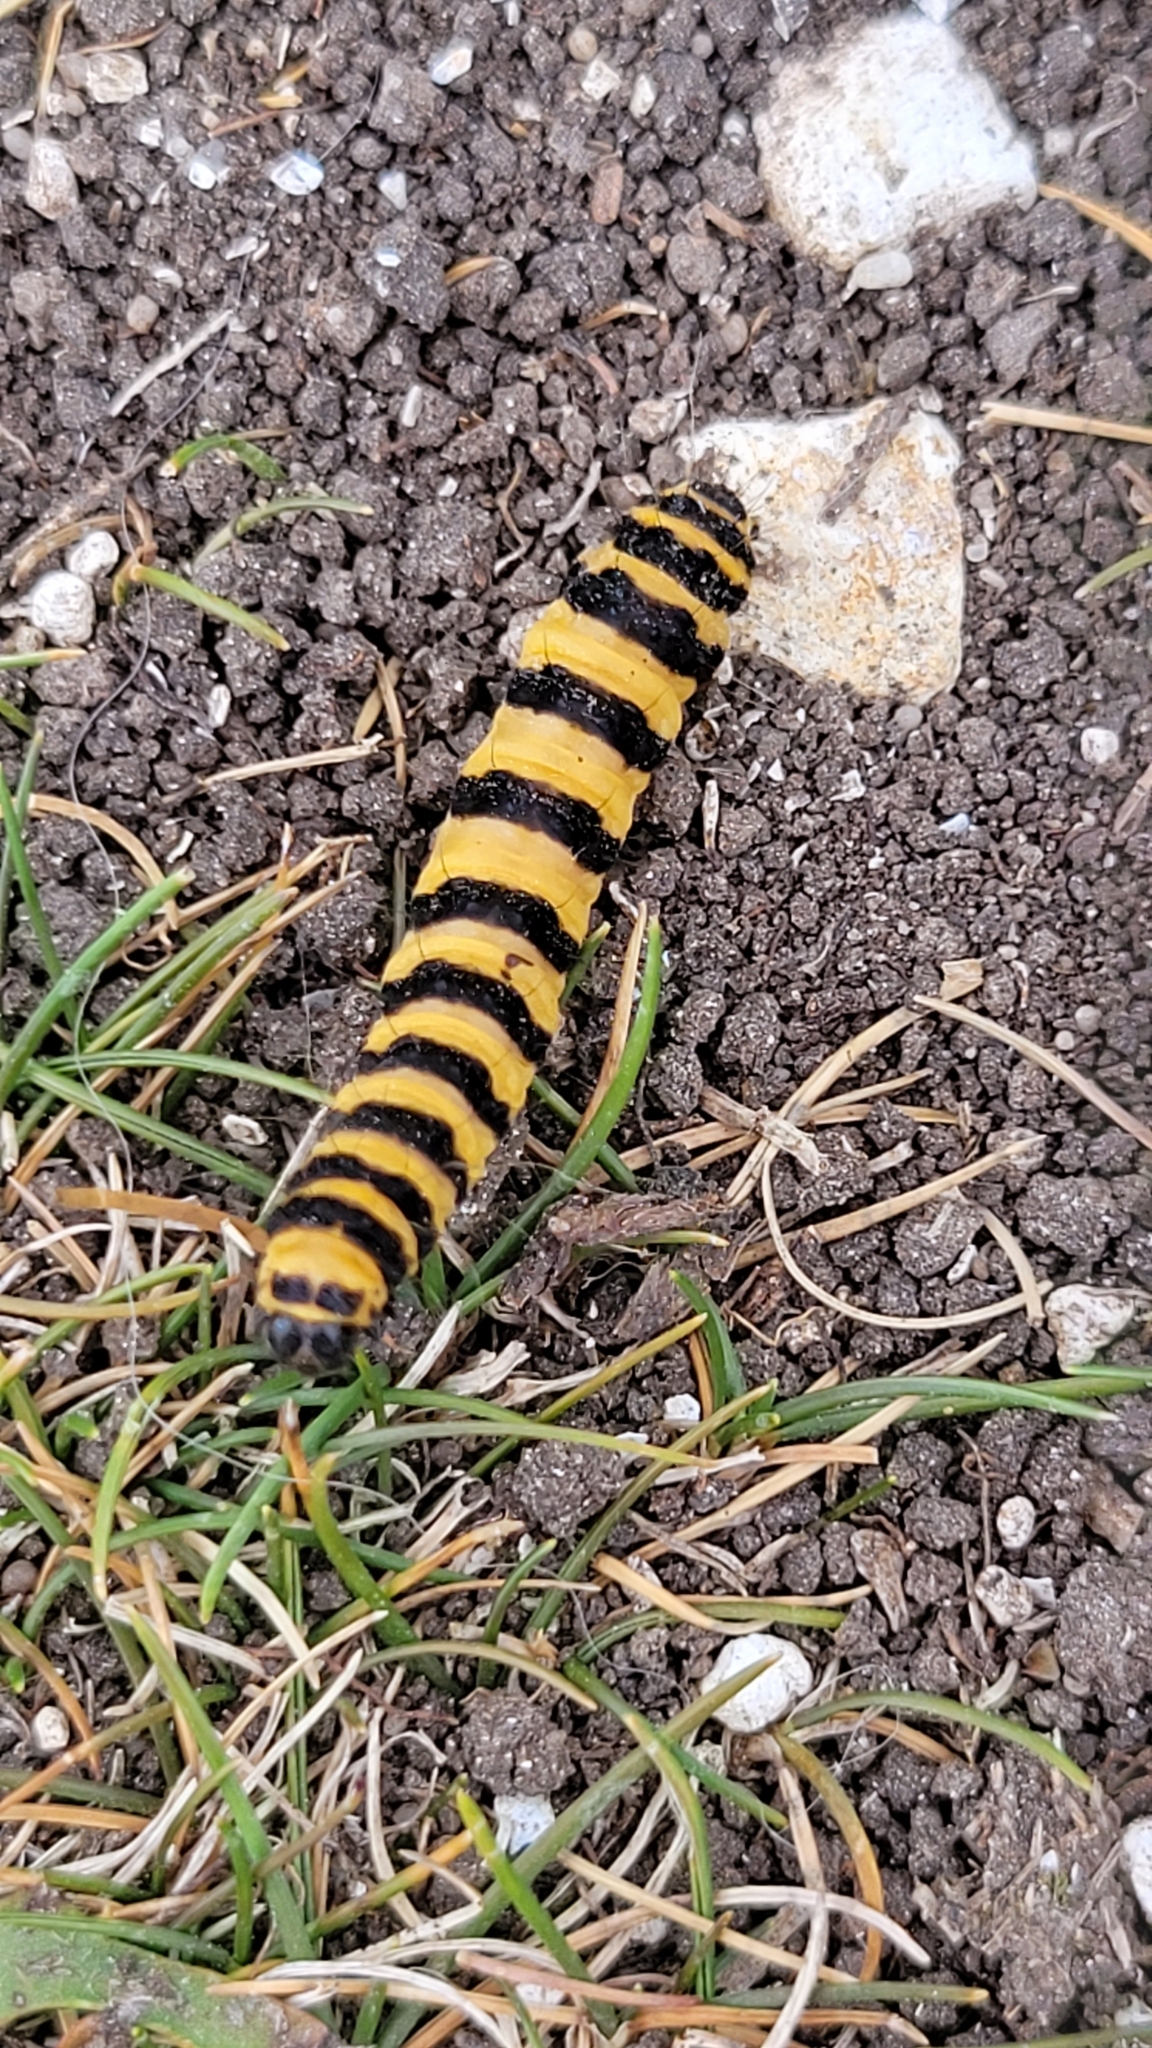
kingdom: Animalia
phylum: Arthropoda
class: Insecta
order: Lepidoptera
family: Erebidae
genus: Tyria
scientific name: Tyria jacobaeae
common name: Cinnabar
